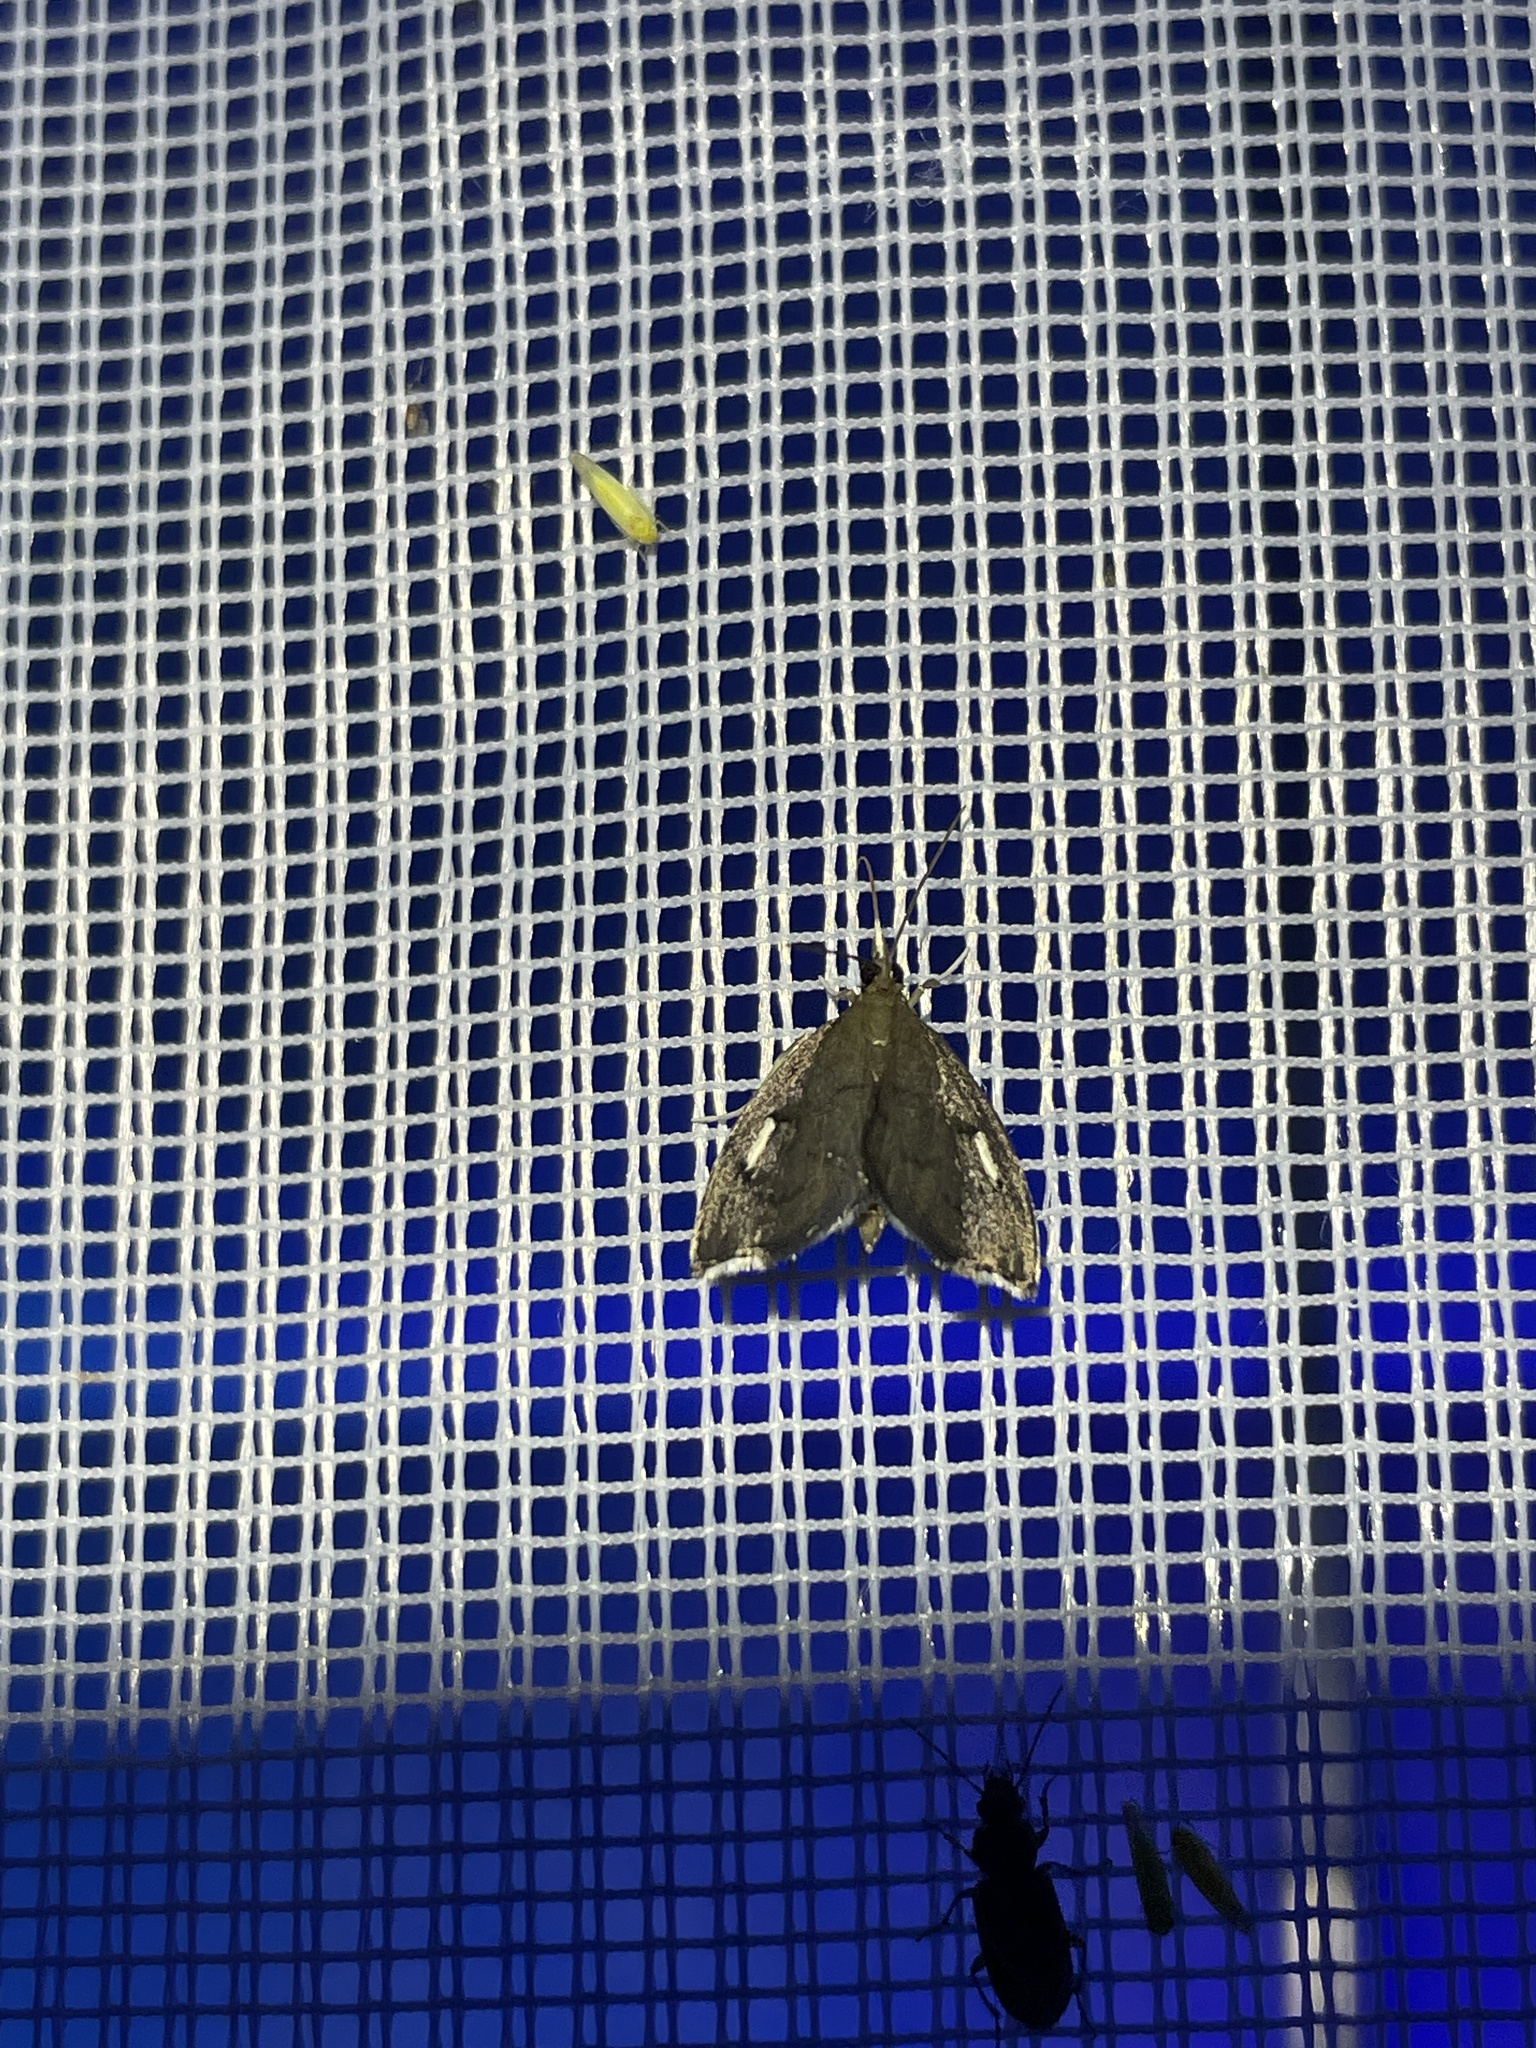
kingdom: Animalia
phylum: Arthropoda
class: Insecta
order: Lepidoptera
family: Crambidae
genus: Perispasta
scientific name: Perispasta caeculalis
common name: Titian peale's moth
